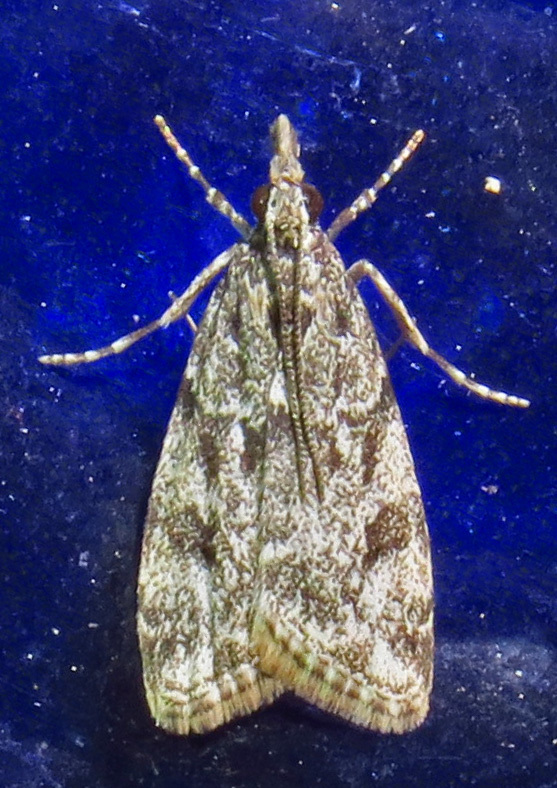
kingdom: Animalia
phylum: Arthropoda
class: Insecta
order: Lepidoptera
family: Crambidae
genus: Eudonia
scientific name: Eudonia heterosalis
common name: Mcdunnough's eudonia
